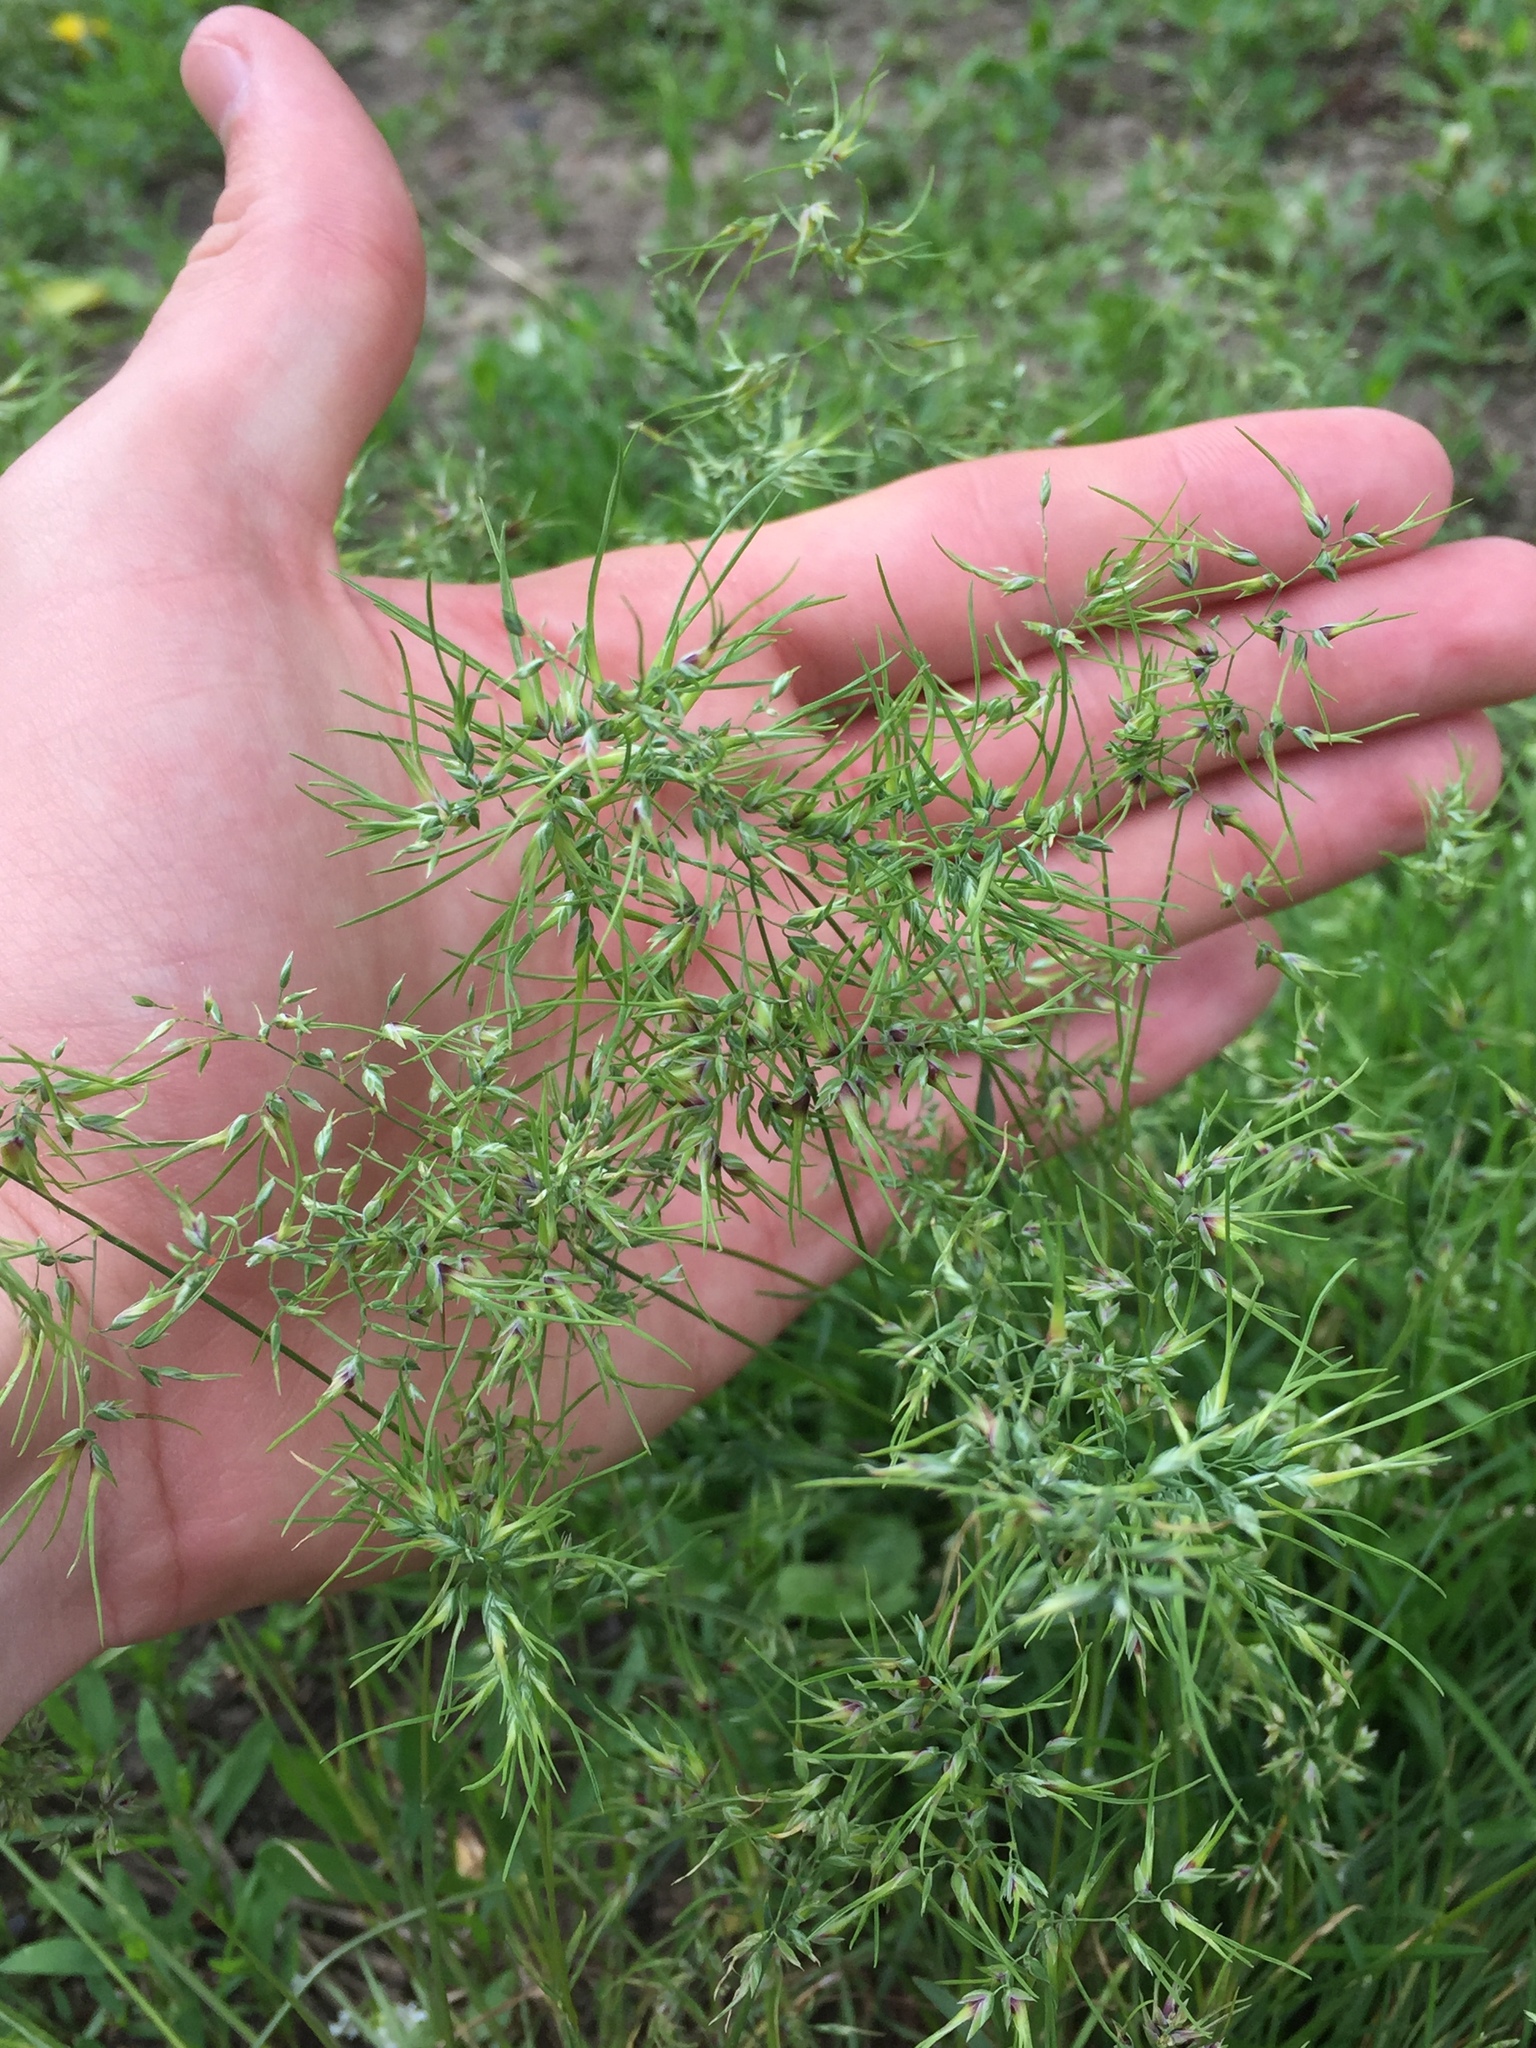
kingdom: Plantae
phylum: Tracheophyta
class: Liliopsida
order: Poales
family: Poaceae
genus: Poa
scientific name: Poa bulbosa
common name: Bulbous bluegrass
